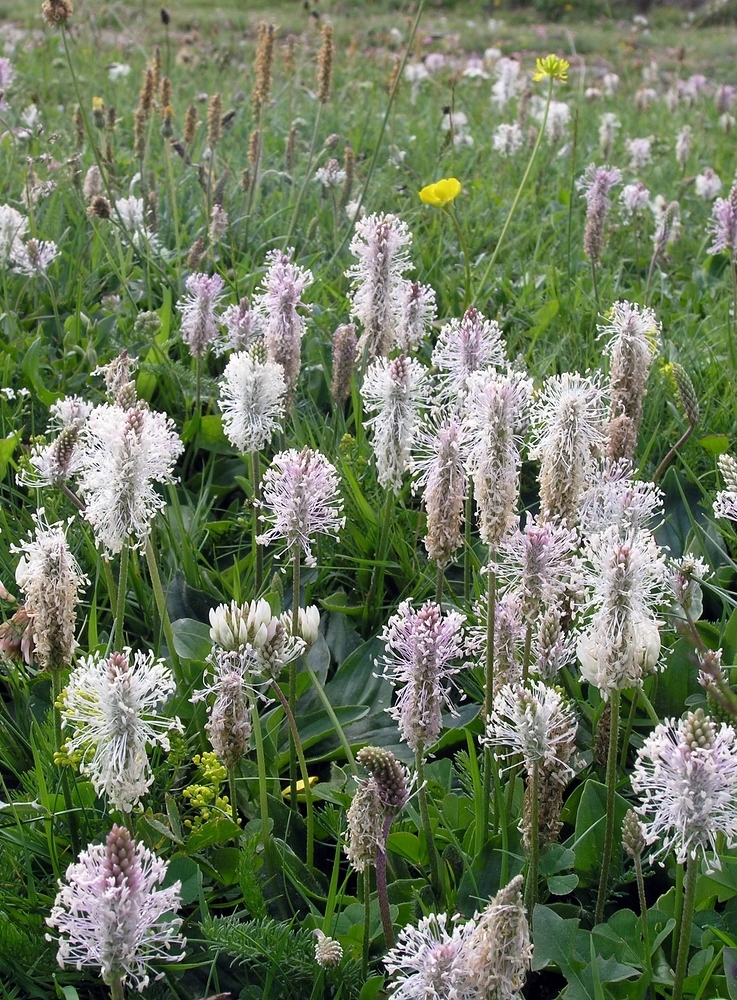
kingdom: Plantae
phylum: Tracheophyta
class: Magnoliopsida
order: Lamiales
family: Plantaginaceae
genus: Plantago
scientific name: Plantago media
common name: Hoary plantain
